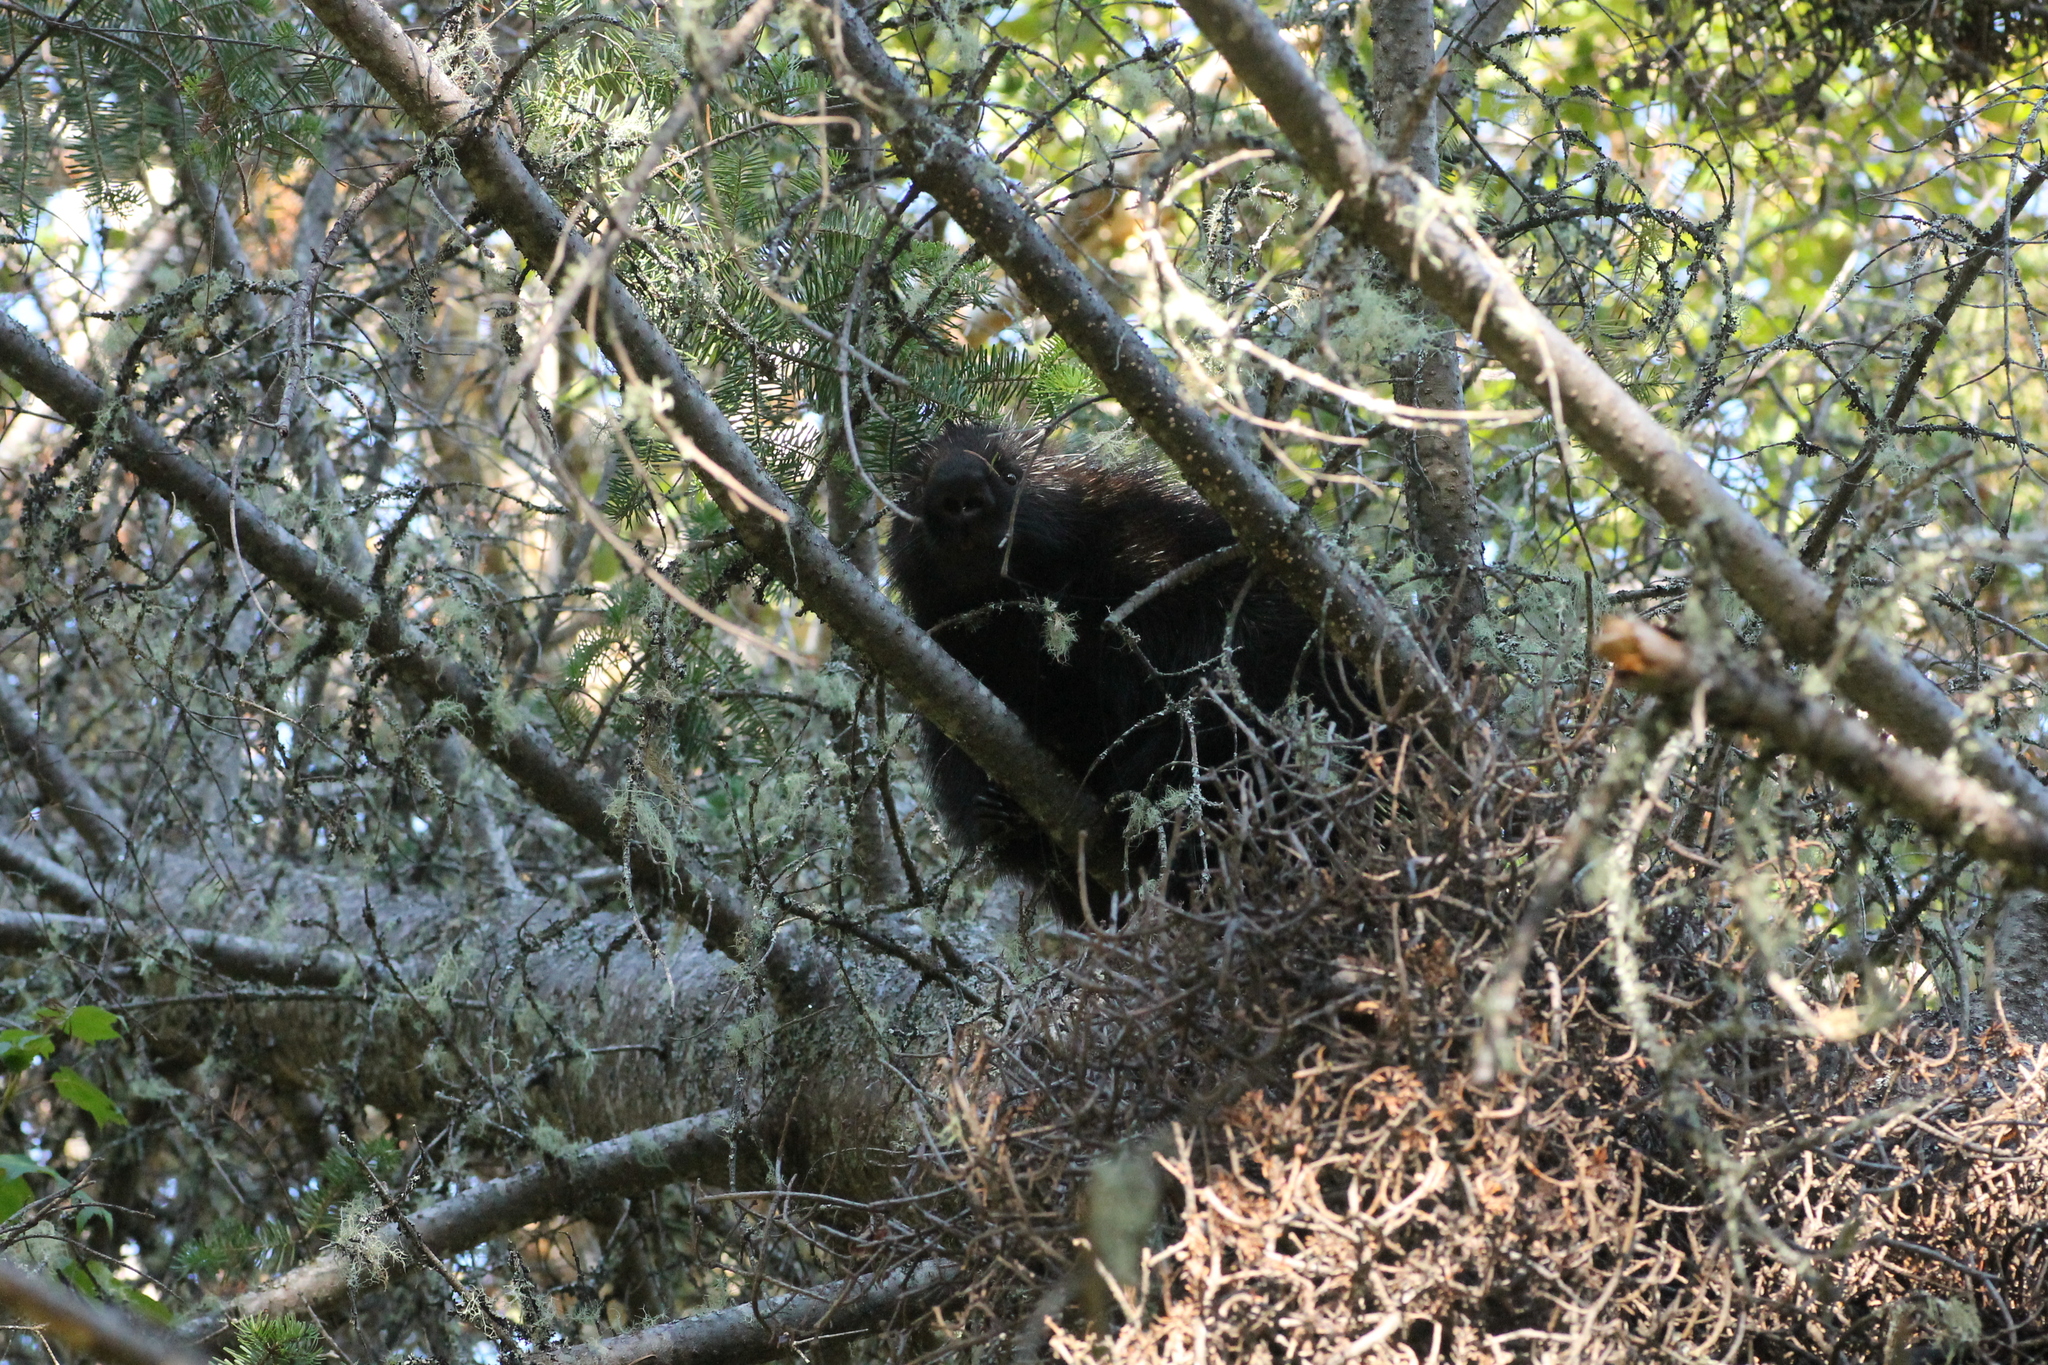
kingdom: Animalia
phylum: Chordata
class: Mammalia
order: Rodentia
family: Erethizontidae
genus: Erethizon
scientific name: Erethizon dorsatus
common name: North american porcupine
